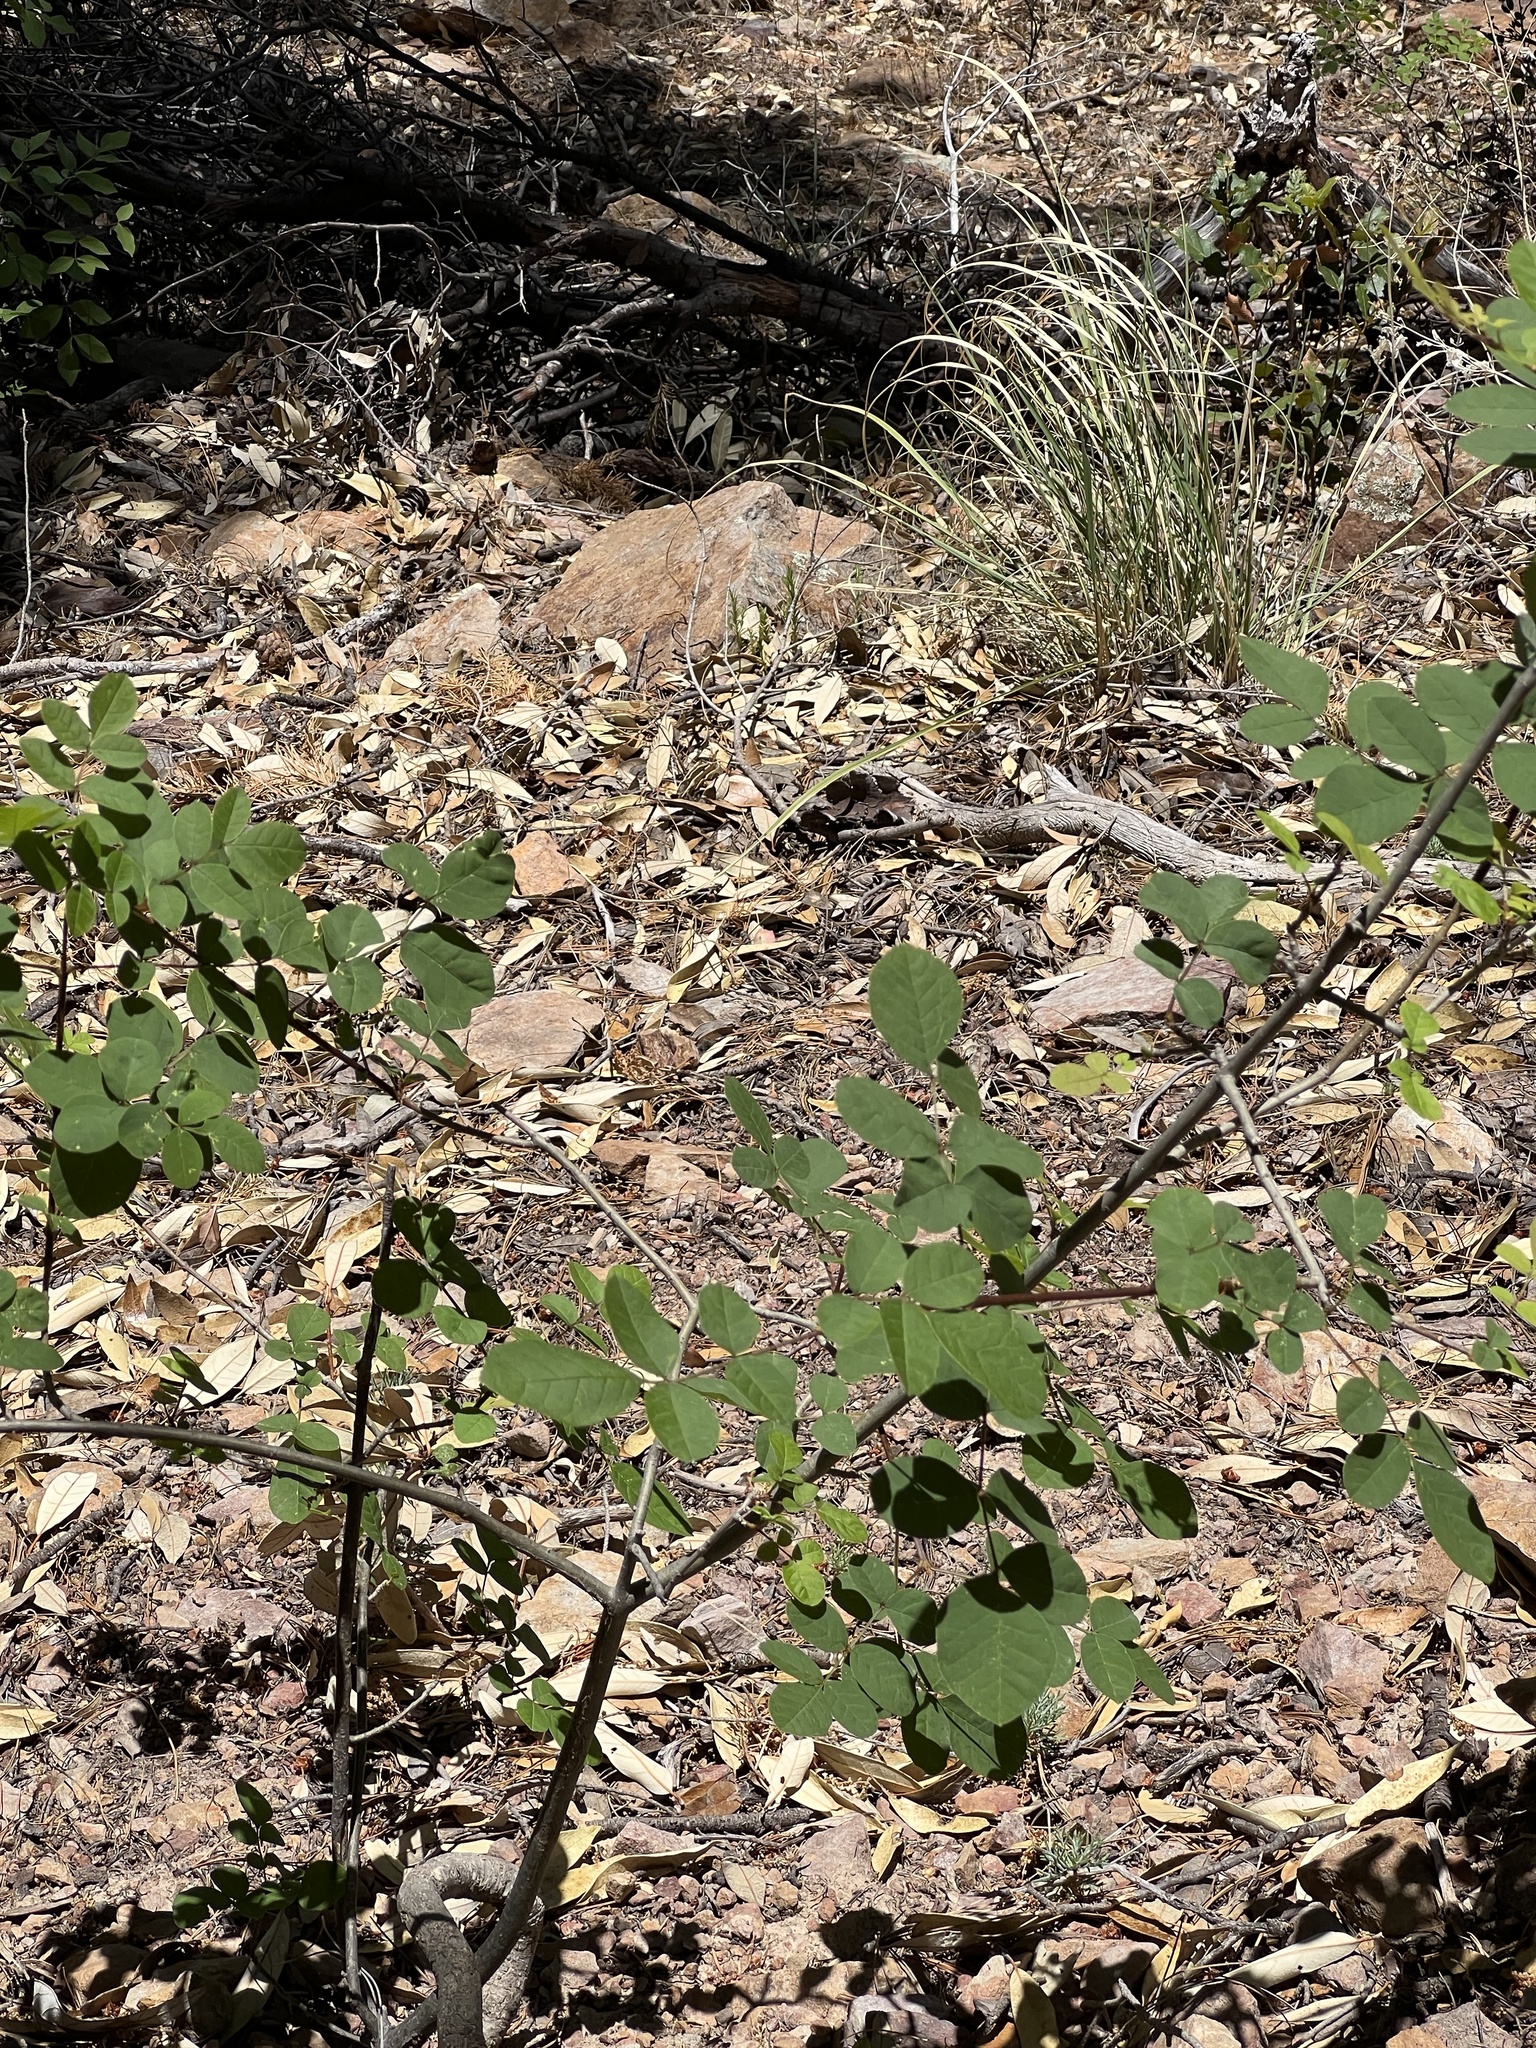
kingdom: Plantae
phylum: Tracheophyta
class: Magnoliopsida
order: Fabales
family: Fabaceae
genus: Robinia
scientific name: Robinia neomexicana
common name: New mexico locust
